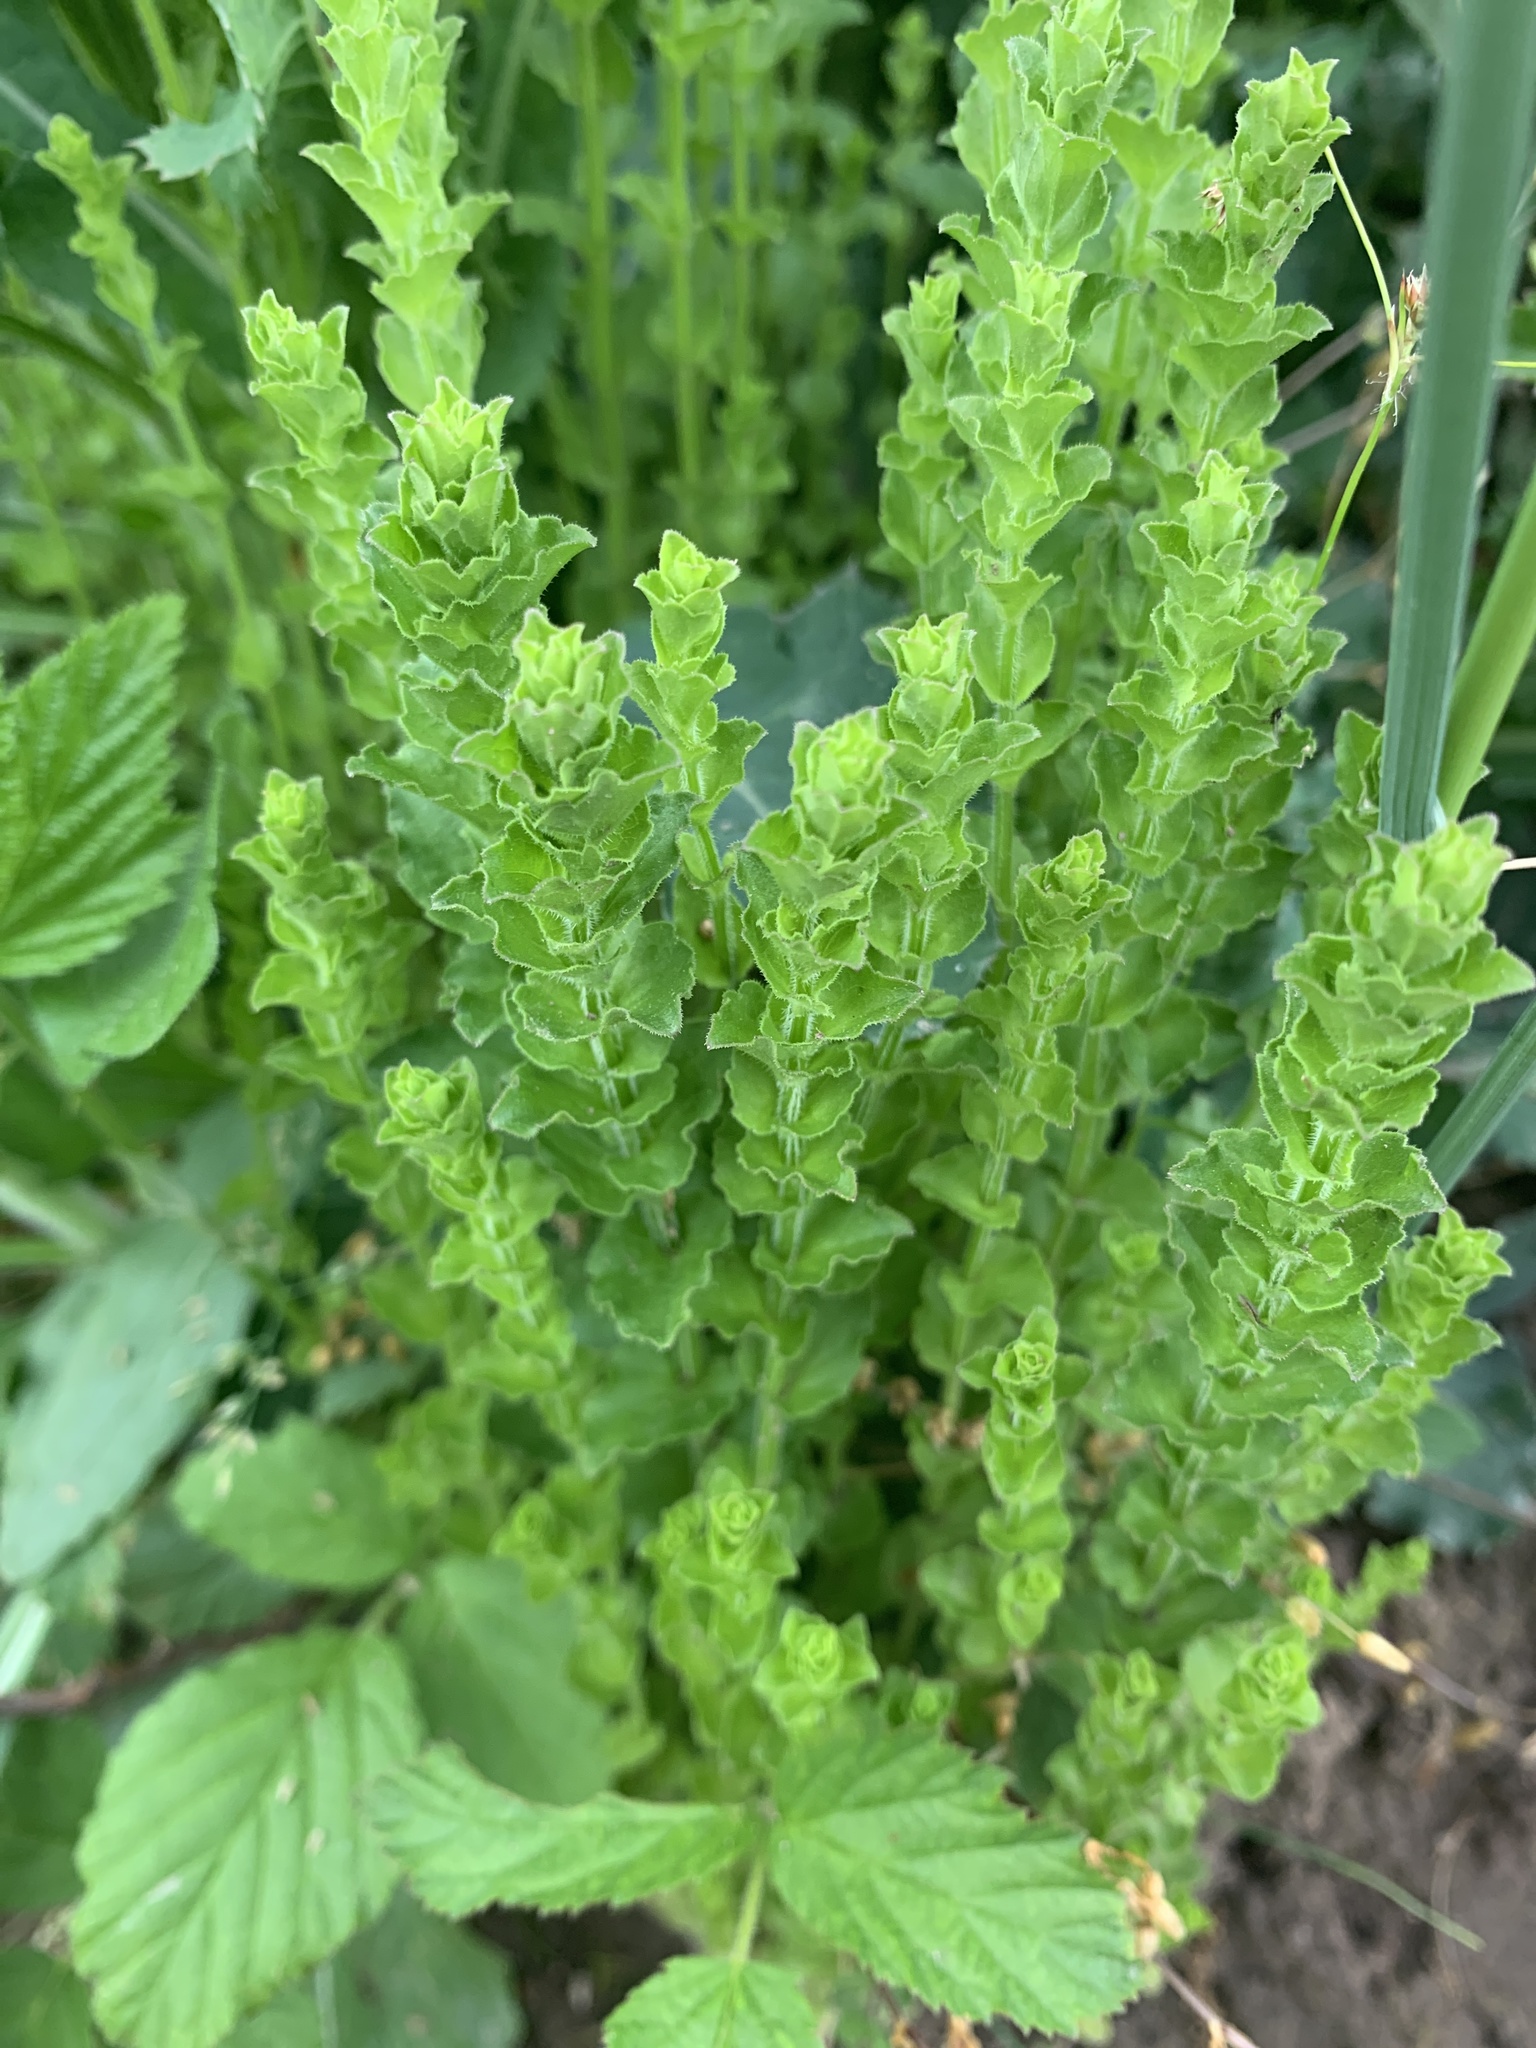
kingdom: Plantae
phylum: Tracheophyta
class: Magnoliopsida
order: Asterales
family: Campanulaceae
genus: Triodanis
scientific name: Triodanis perfoliata
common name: Clasping venus' looking-glass
